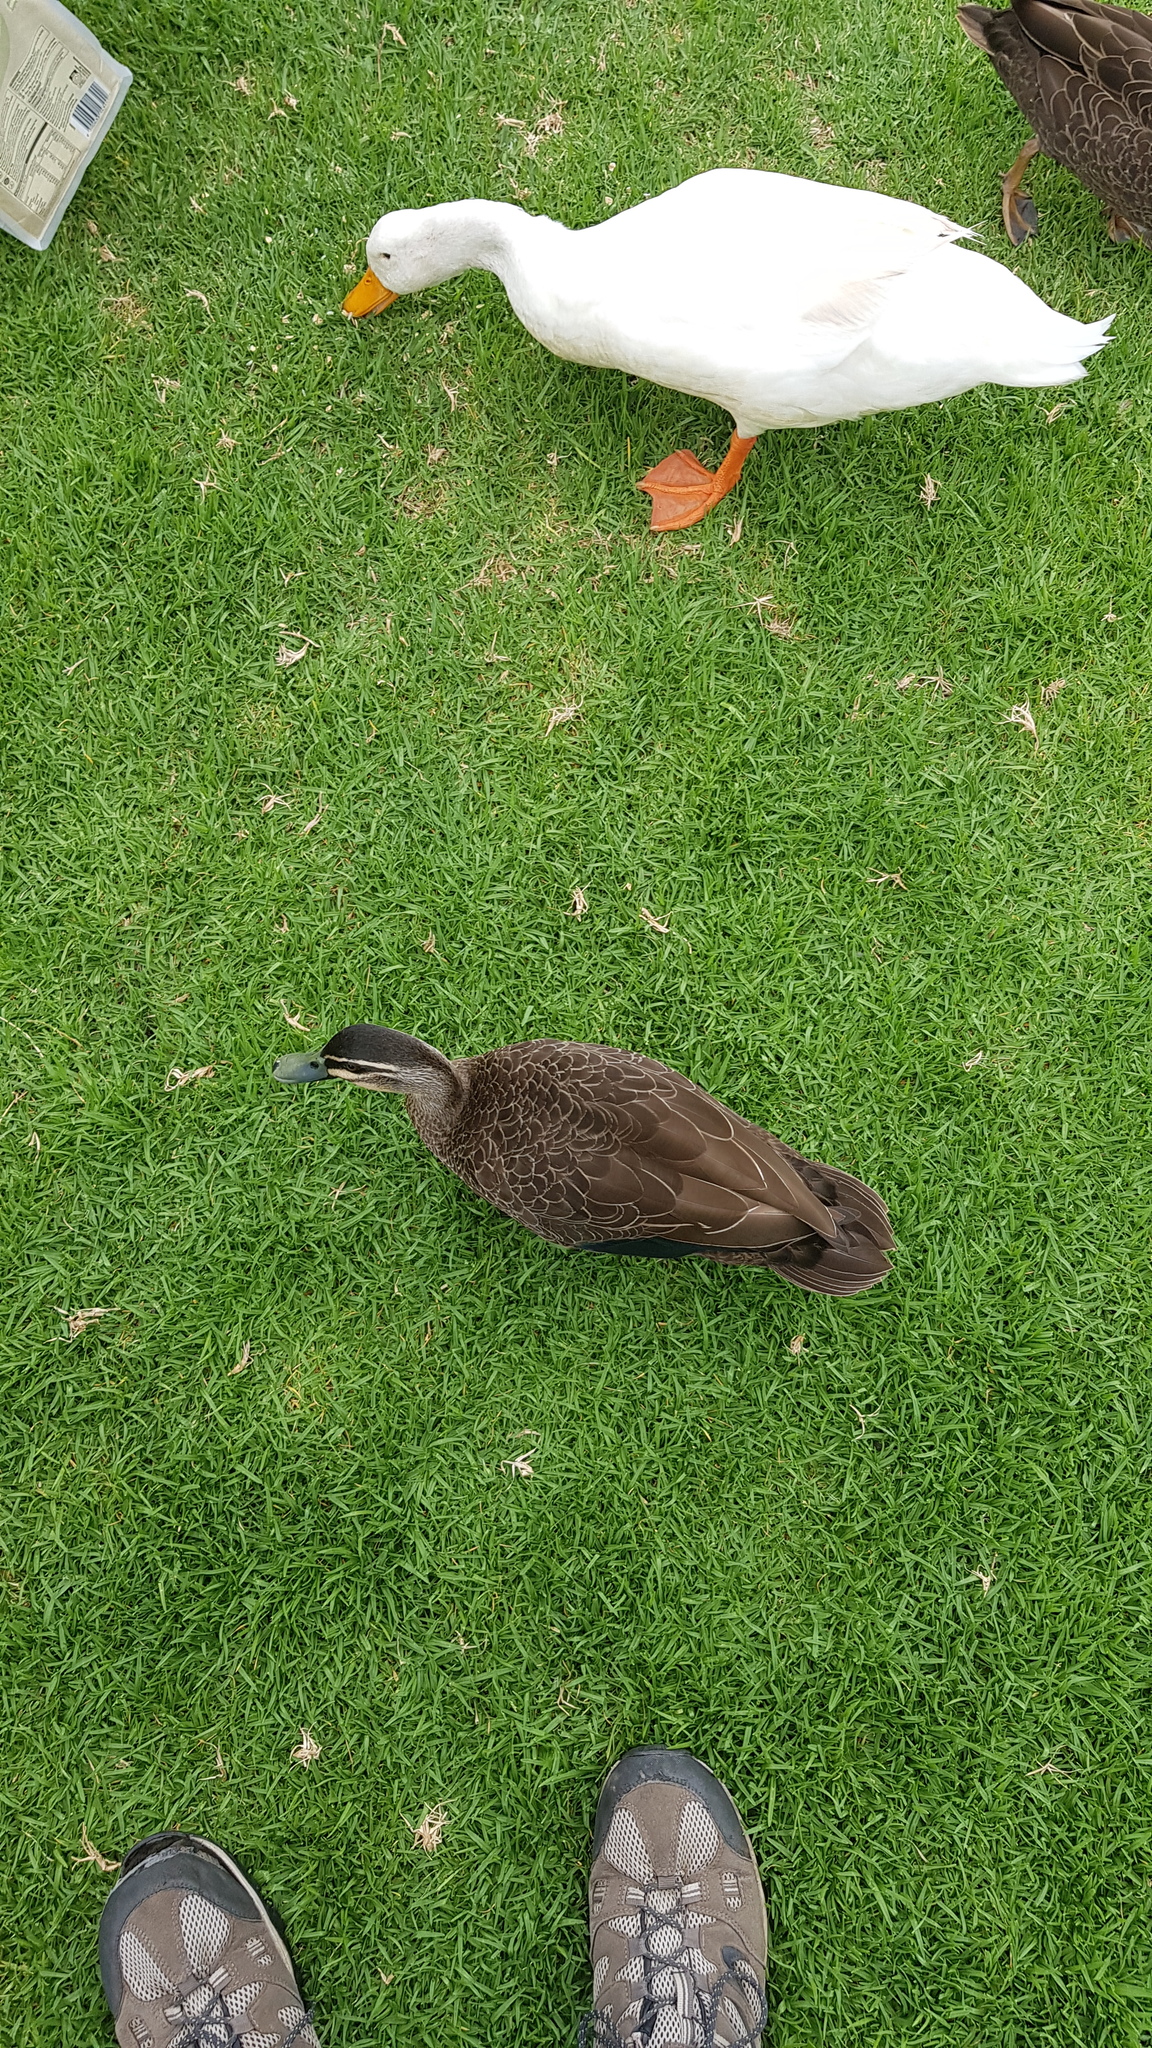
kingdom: Animalia
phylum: Chordata
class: Aves
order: Anseriformes
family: Anatidae
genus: Anas
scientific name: Anas superciliosa
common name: Pacific black duck
